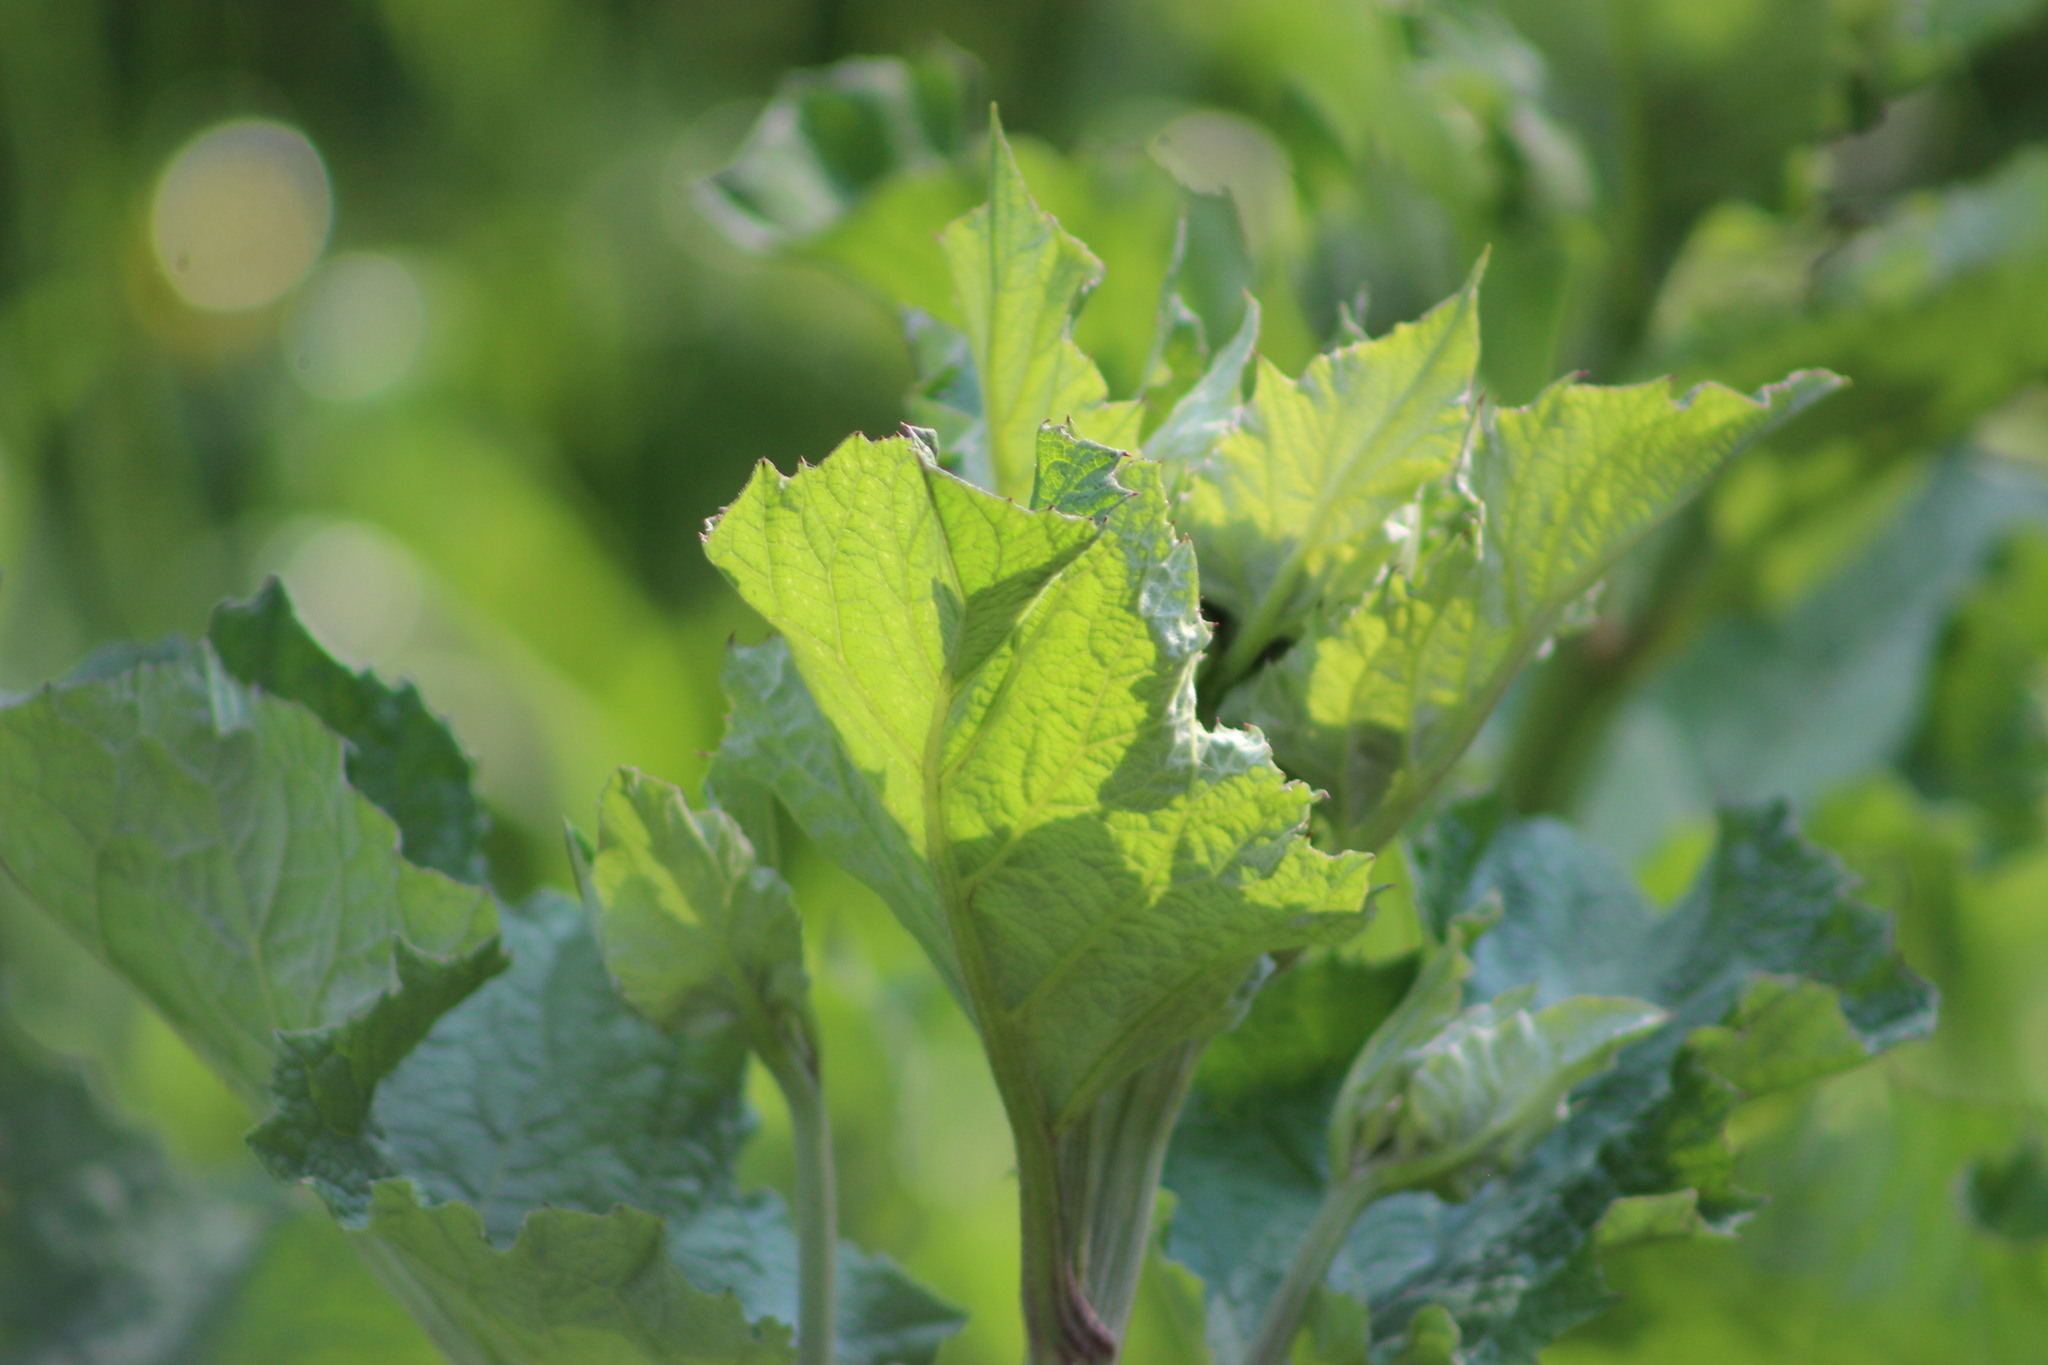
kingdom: Plantae
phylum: Tracheophyta
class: Magnoliopsida
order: Asterales
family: Asteraceae
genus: Arctium
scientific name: Arctium tomentosum
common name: Woolly burdock
